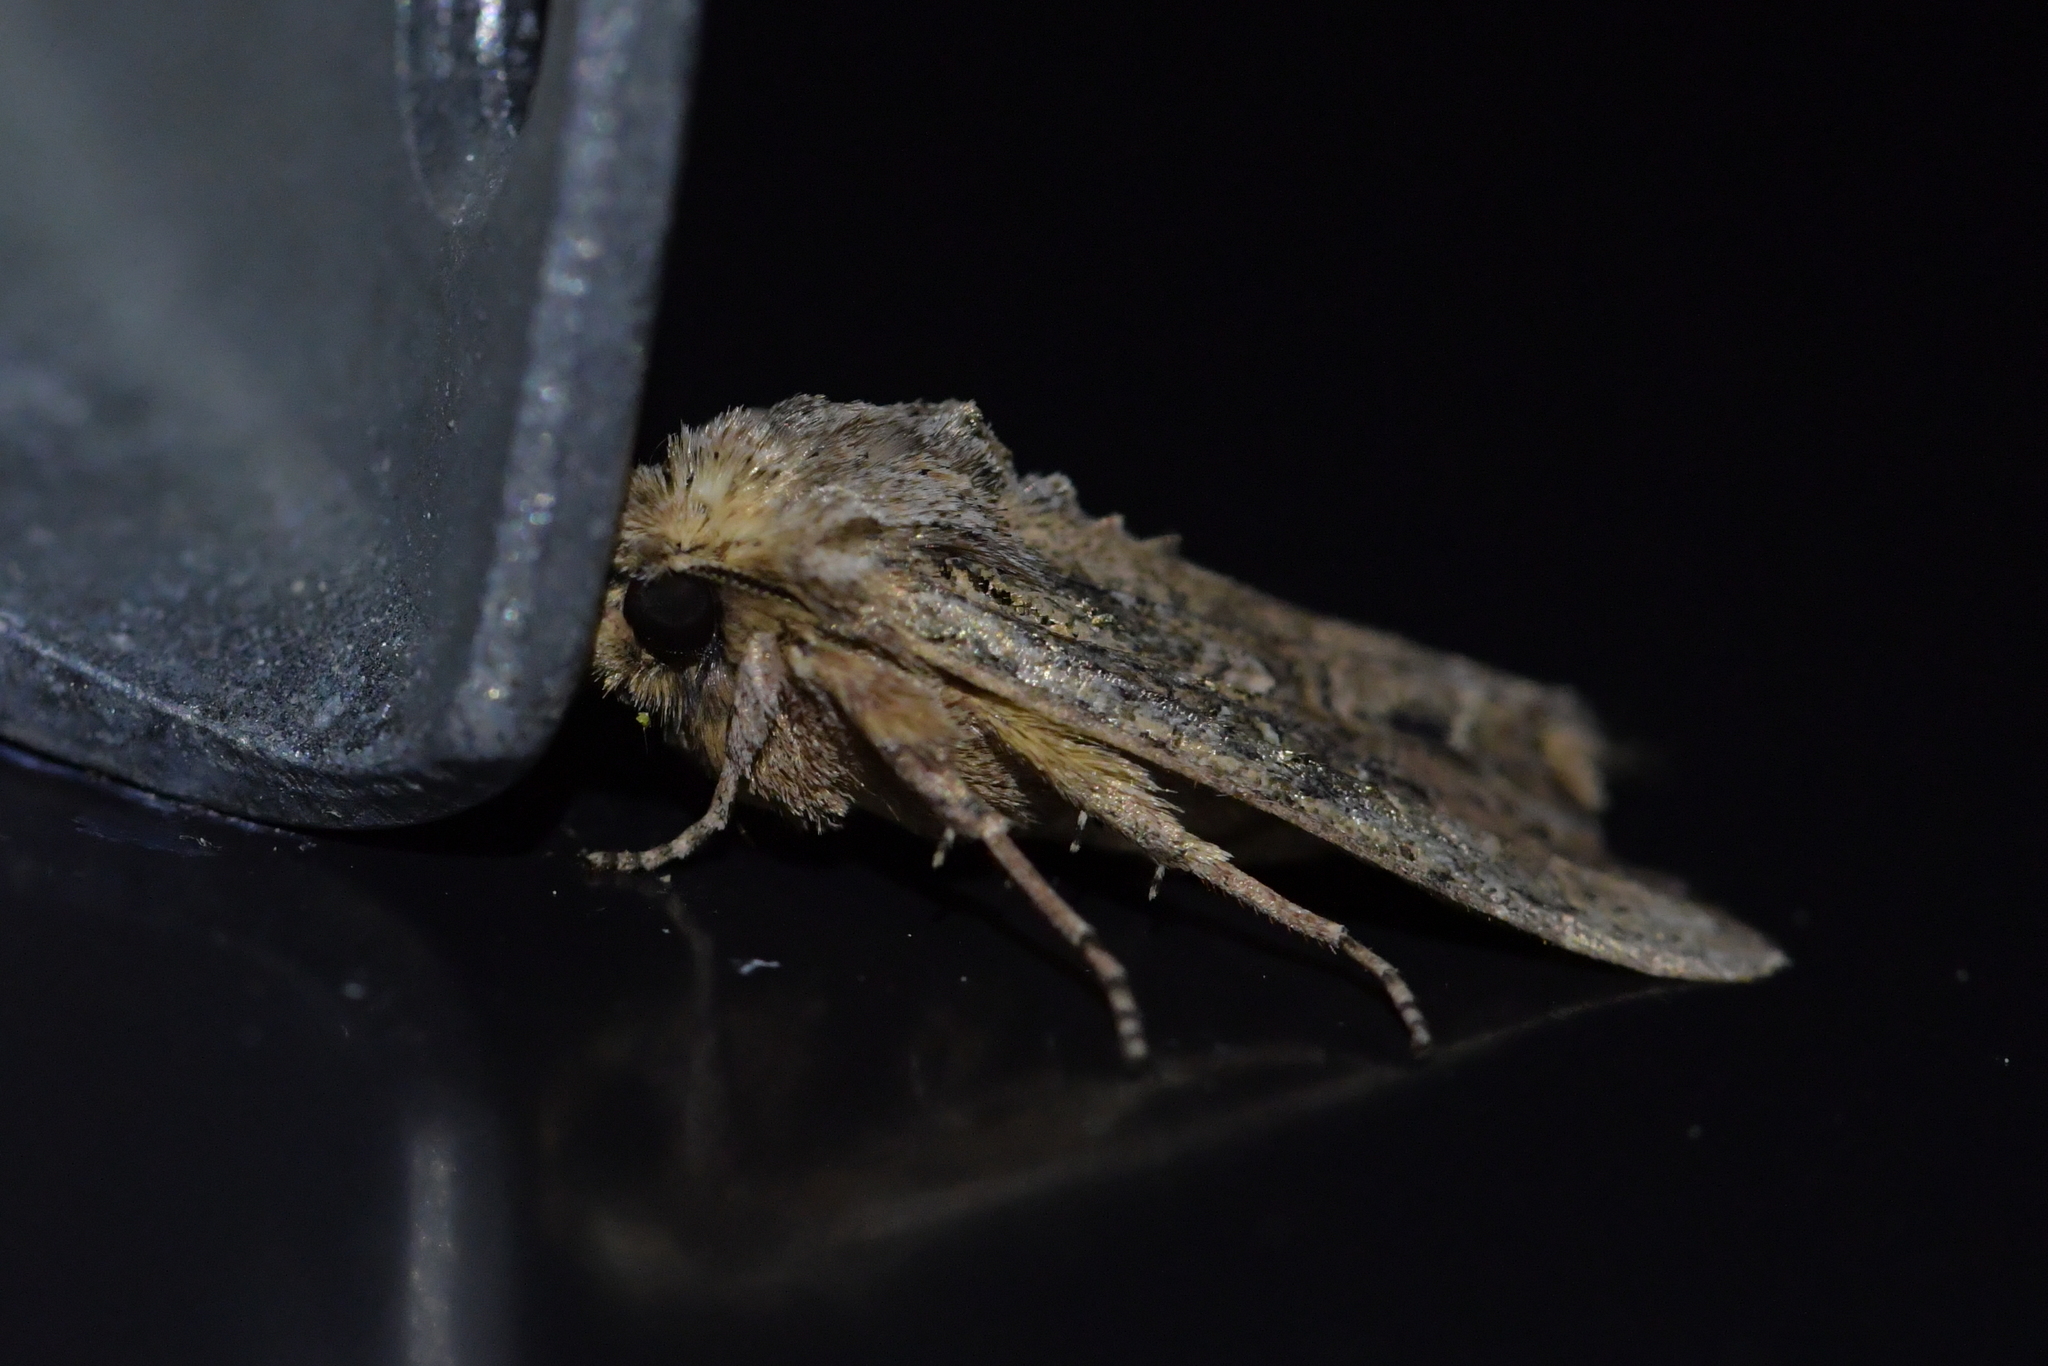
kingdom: Animalia
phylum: Arthropoda
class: Insecta
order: Lepidoptera
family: Noctuidae
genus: Ichneutica
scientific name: Ichneutica mutans
